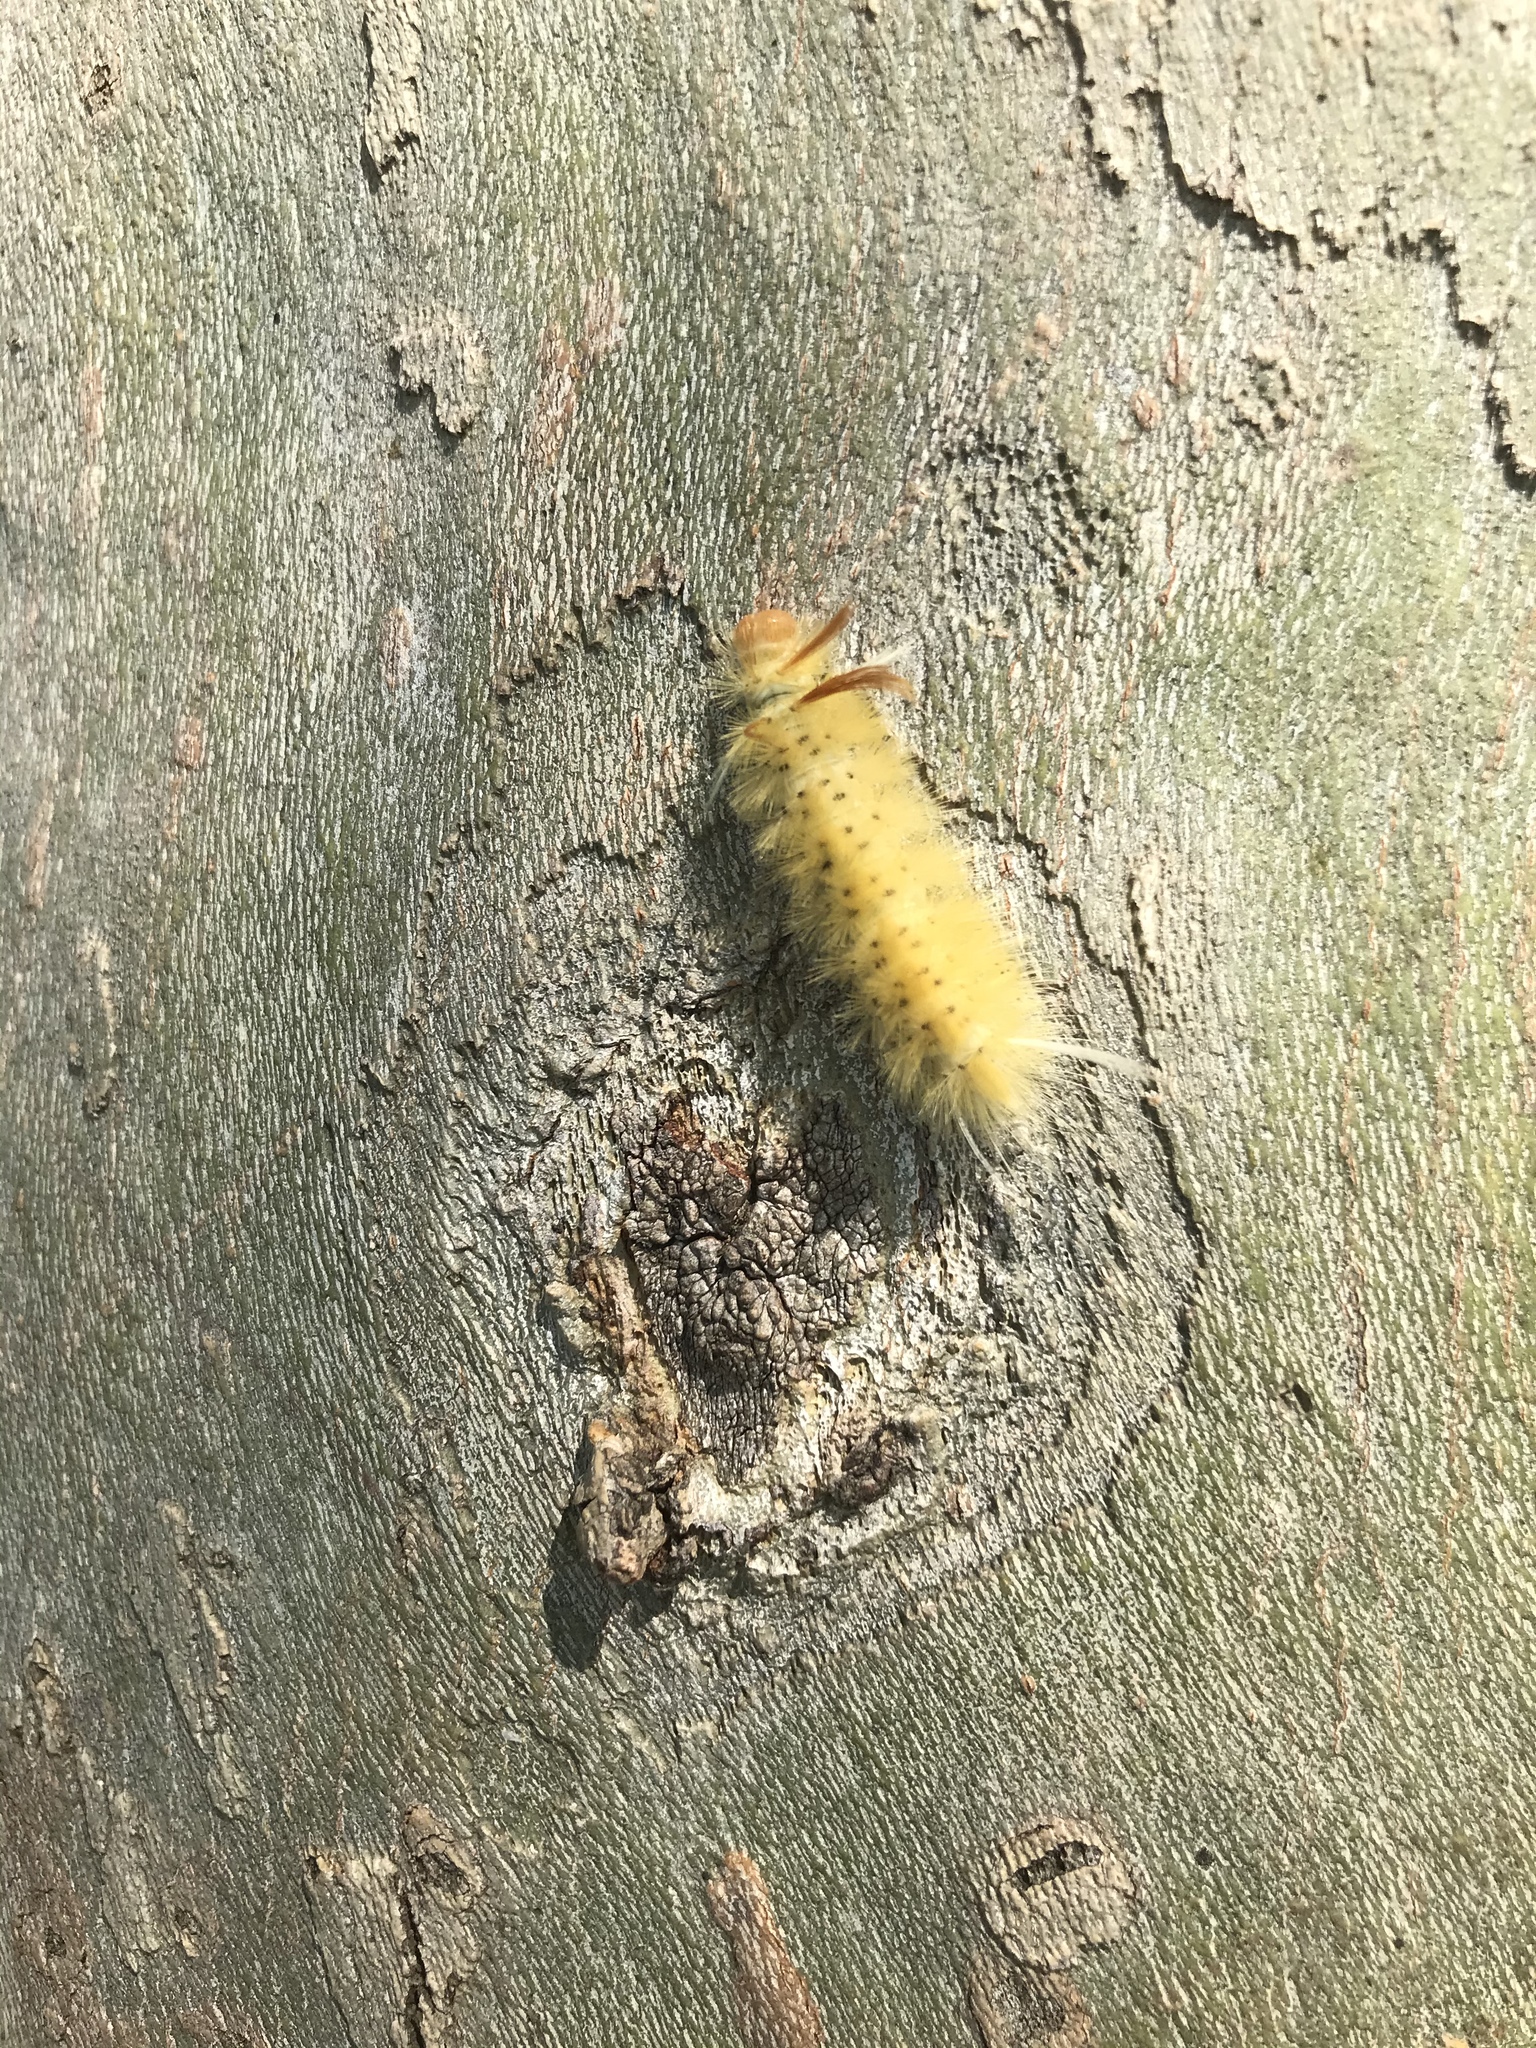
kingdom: Animalia
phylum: Arthropoda
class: Insecta
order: Lepidoptera
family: Erebidae
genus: Halysidota
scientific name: Halysidota harrisii
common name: Sycamore tussock moth
